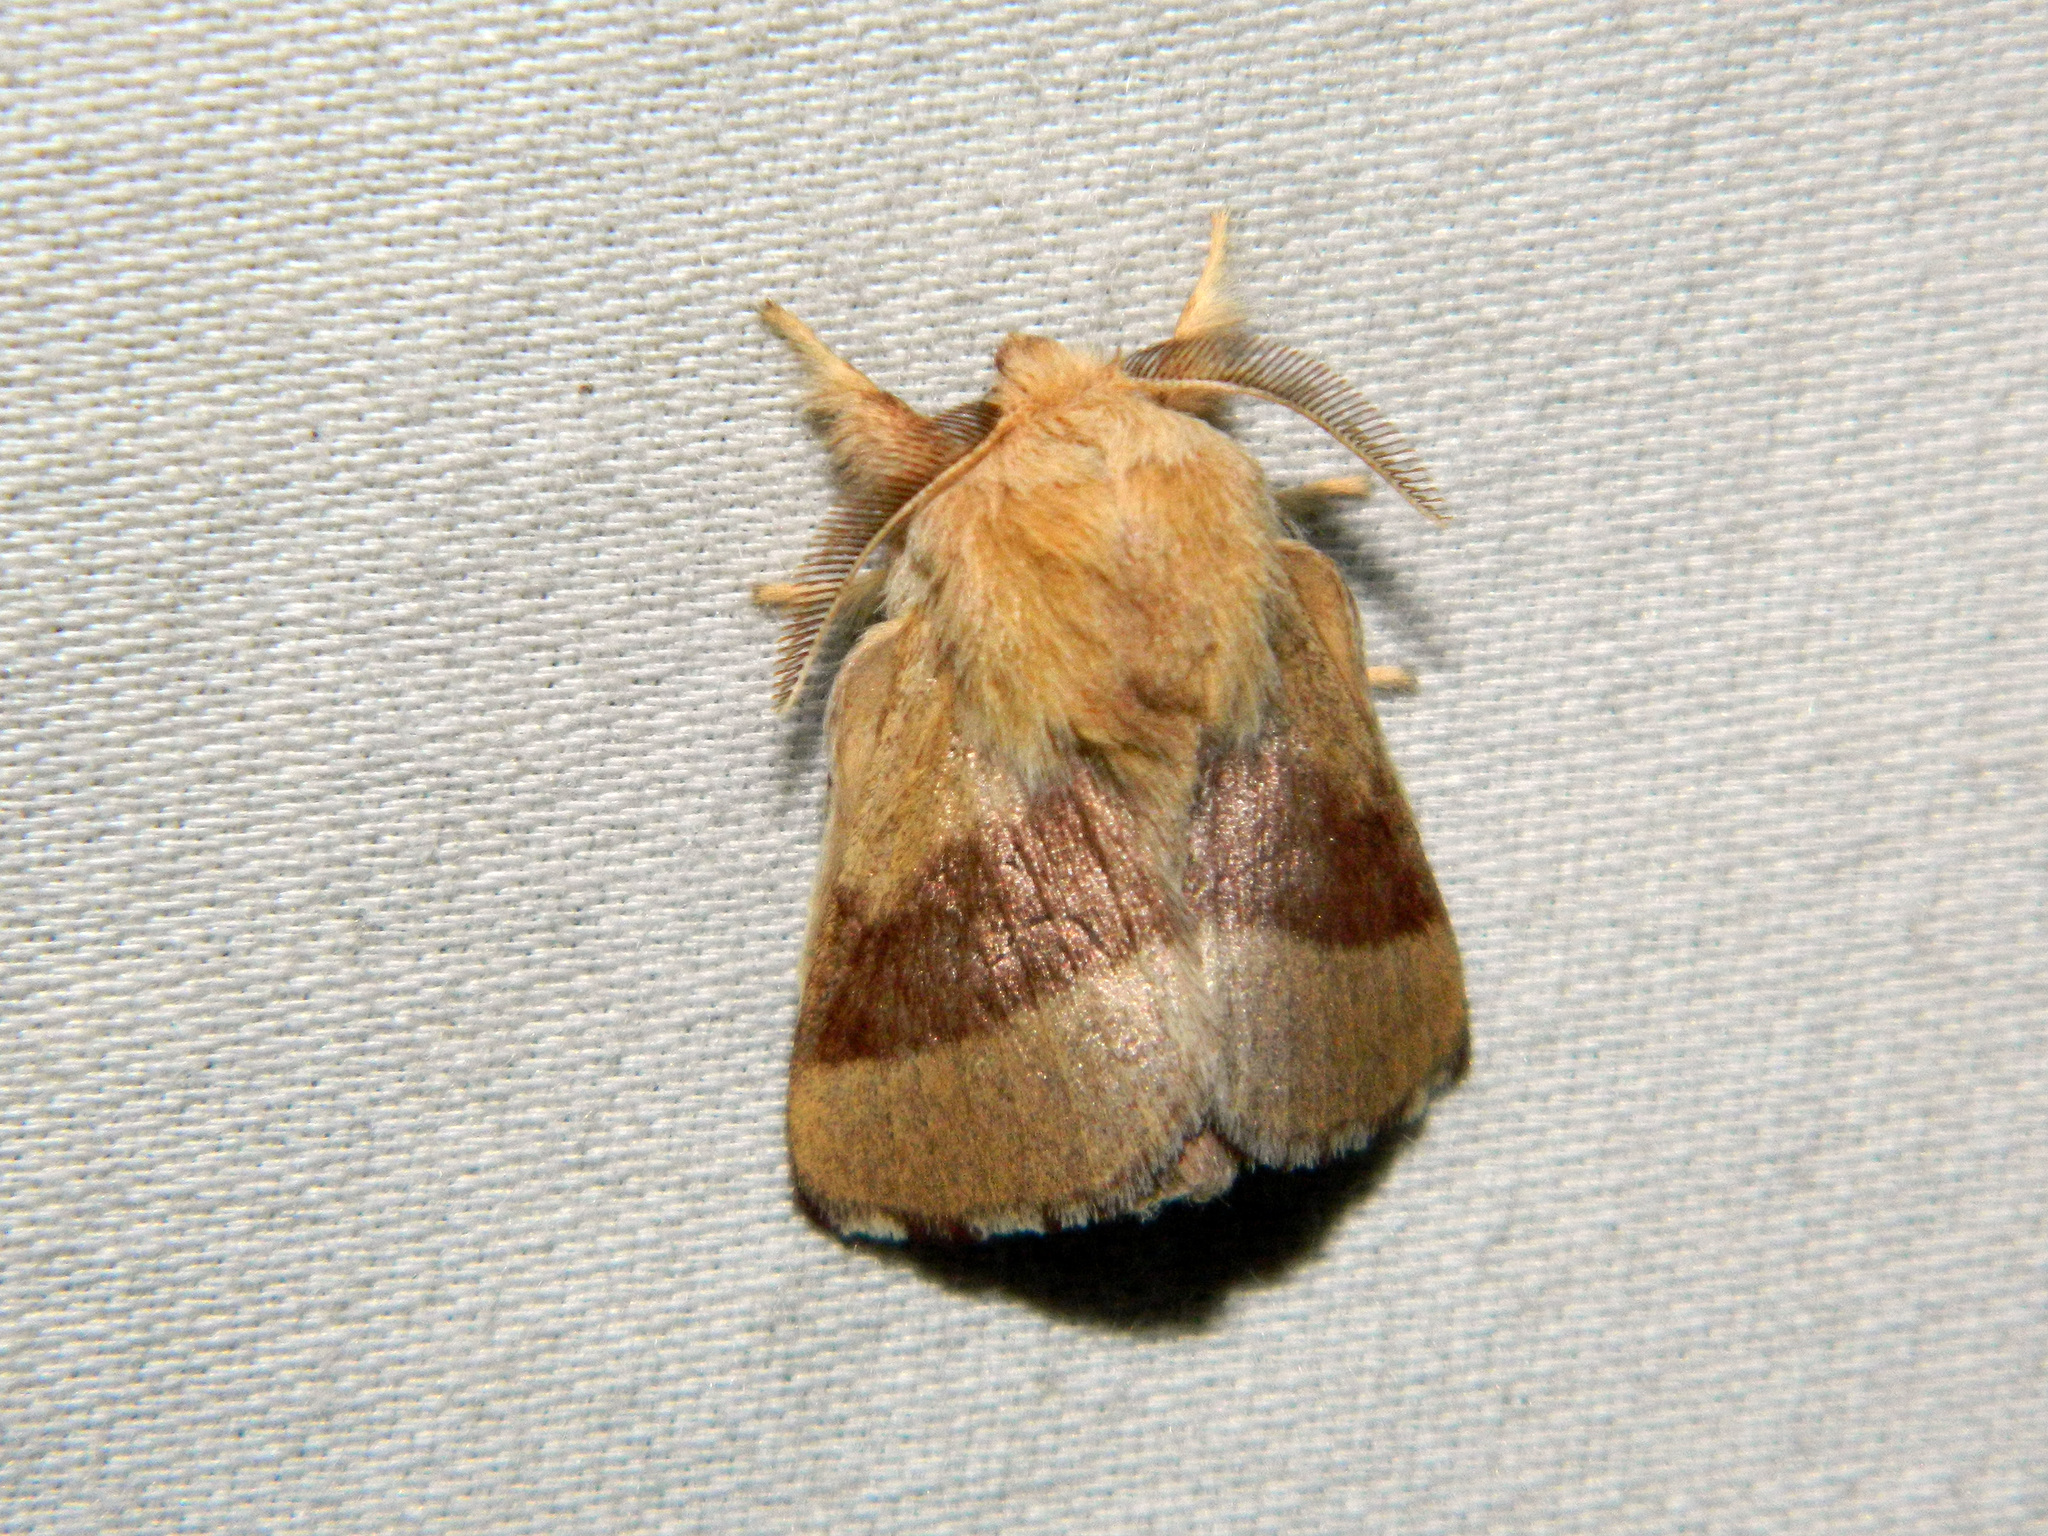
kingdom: Animalia
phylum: Arthropoda
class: Insecta
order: Lepidoptera
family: Lasiocampidae
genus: Malacosoma
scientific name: Malacosoma disstria
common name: Forest tent caterpillar
